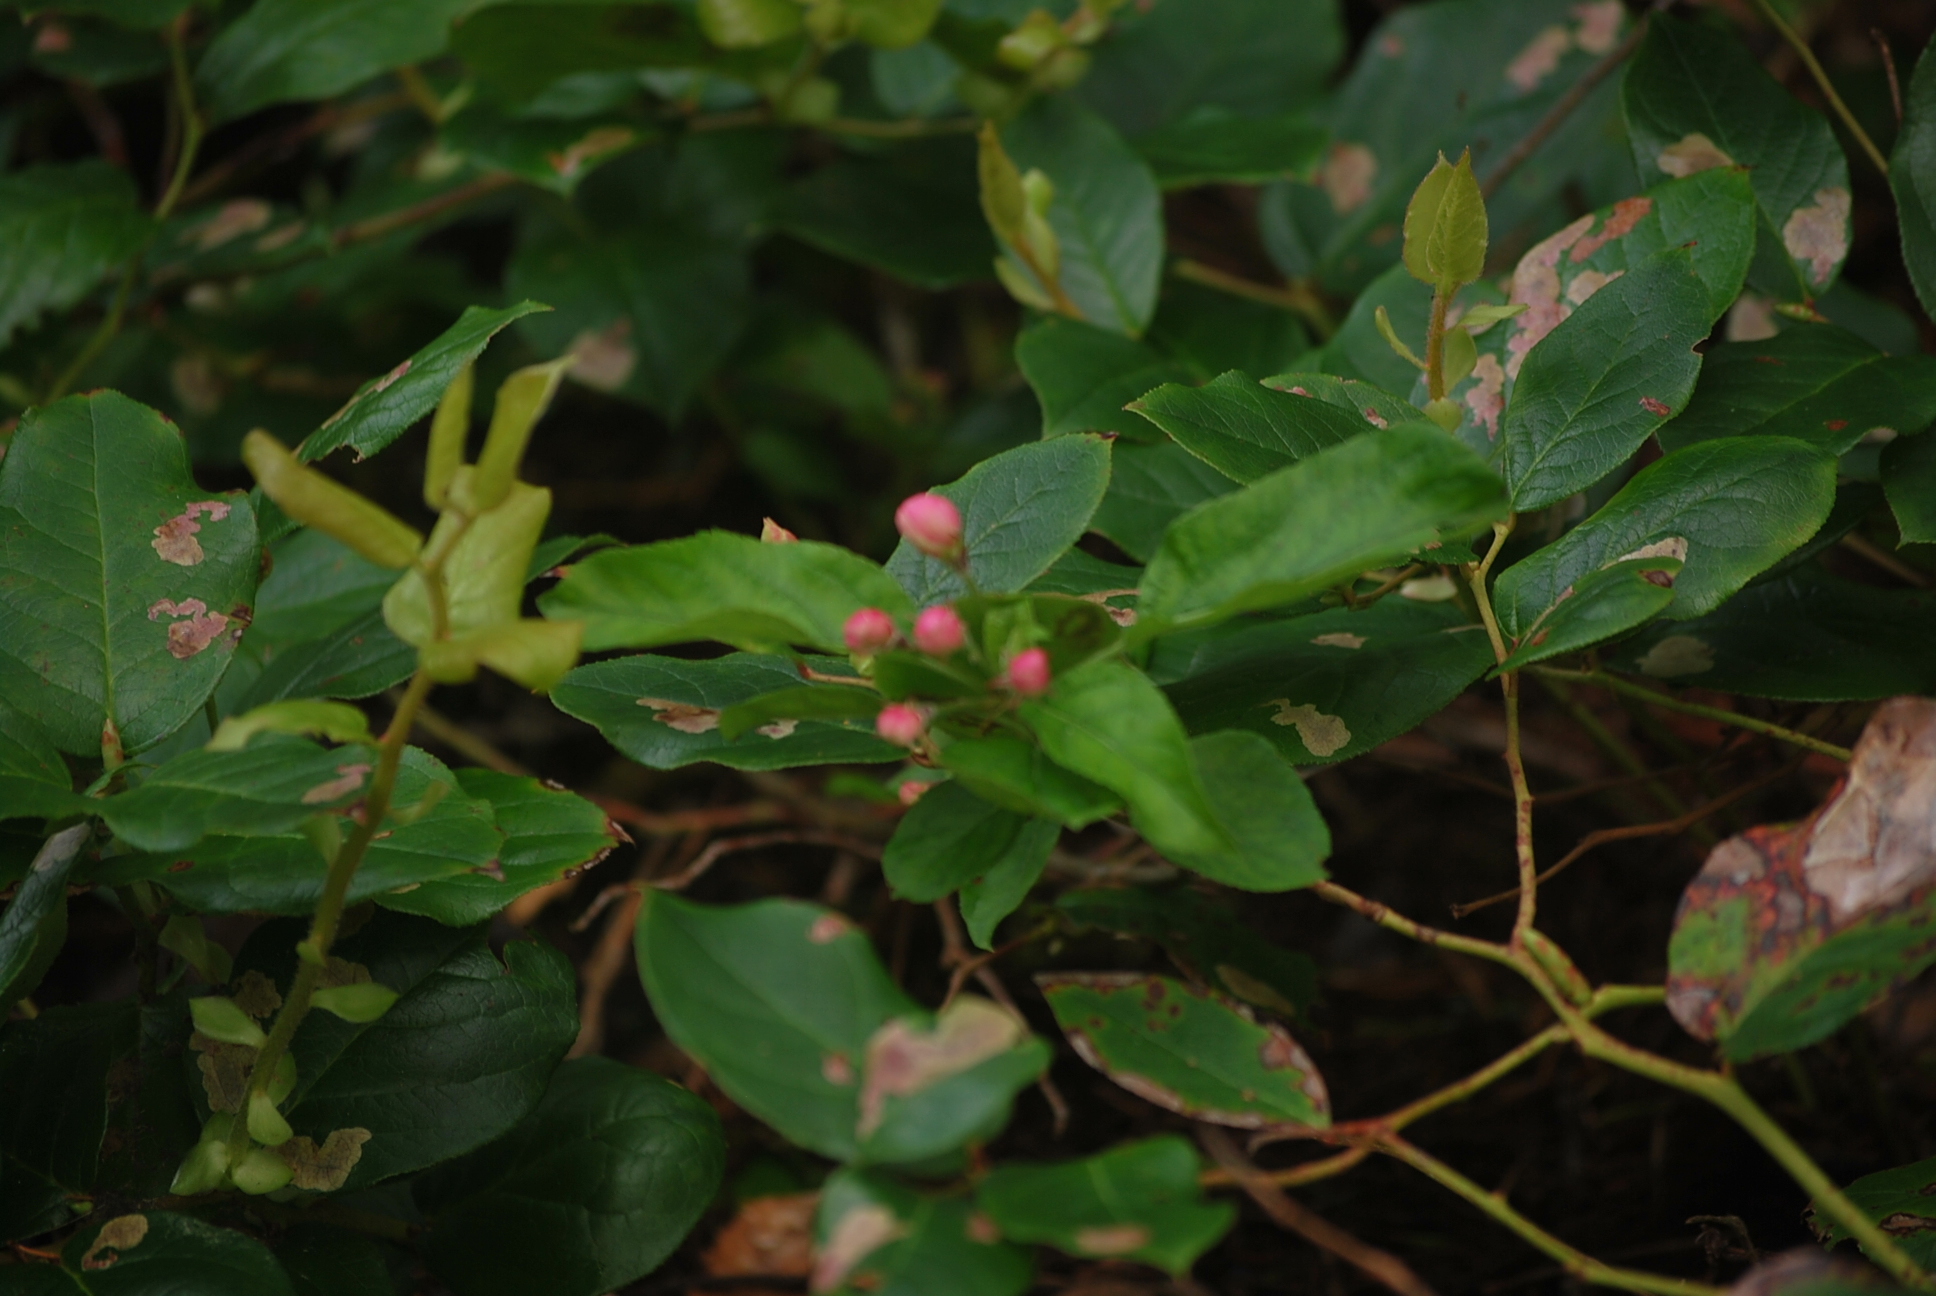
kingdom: Plantae
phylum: Tracheophyta
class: Magnoliopsida
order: Ericales
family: Ericaceae
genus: Gaultheria
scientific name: Gaultheria shallon
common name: Shallon
